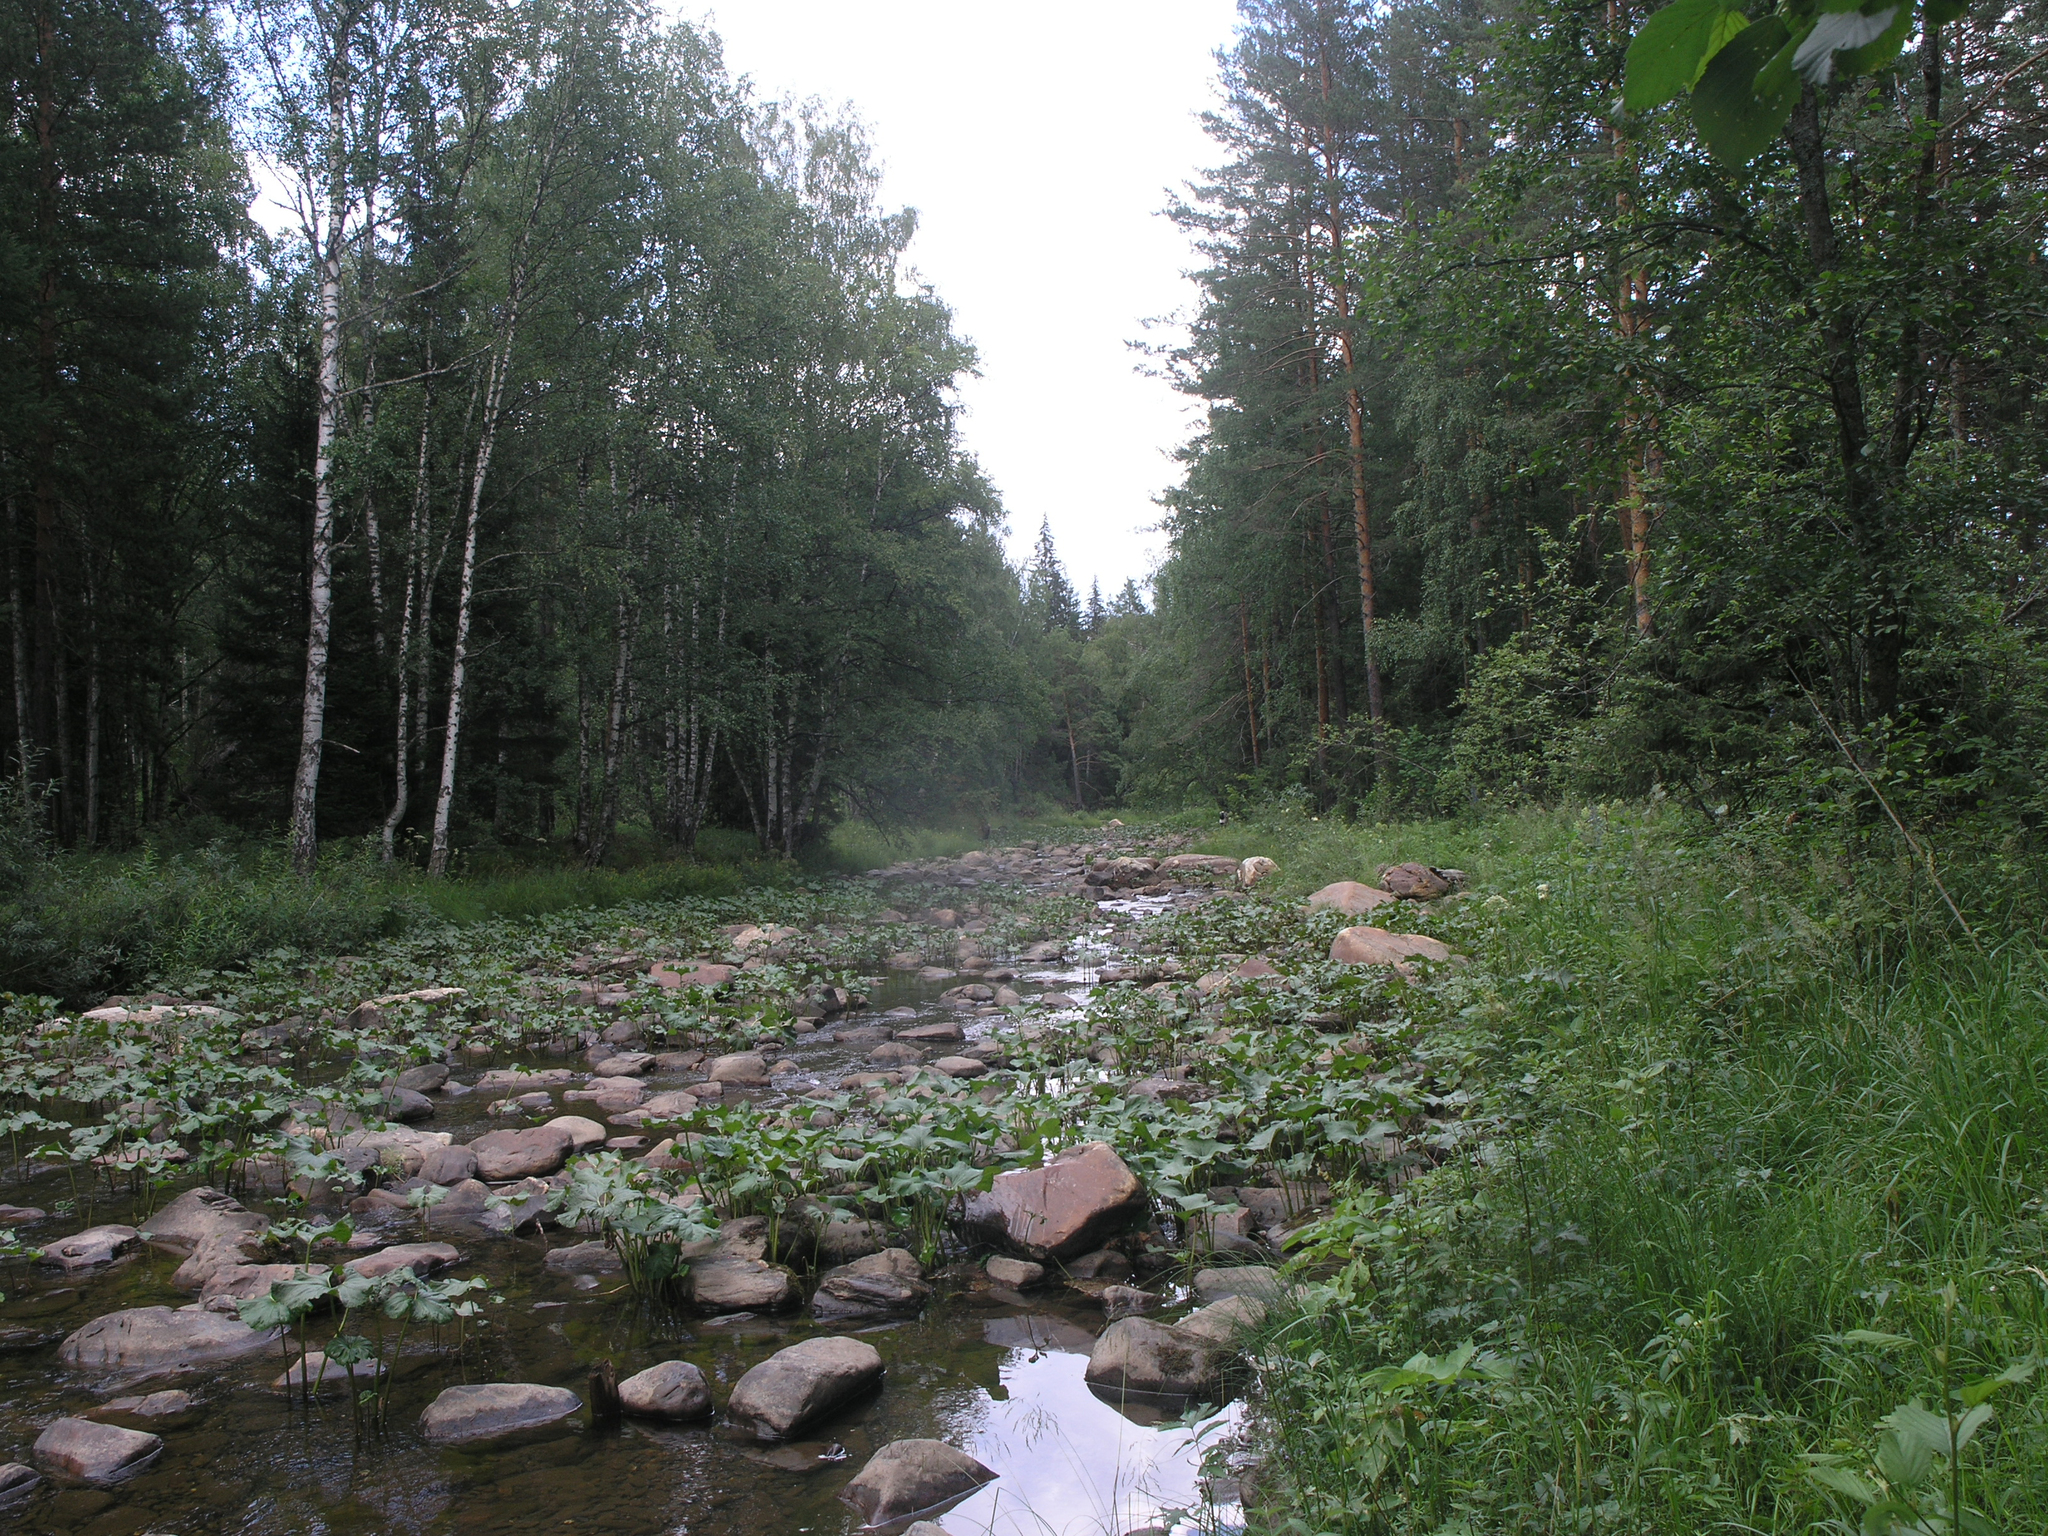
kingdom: Plantae
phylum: Tracheophyta
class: Magnoliopsida
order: Asterales
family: Asteraceae
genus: Petasites
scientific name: Petasites radiatus
